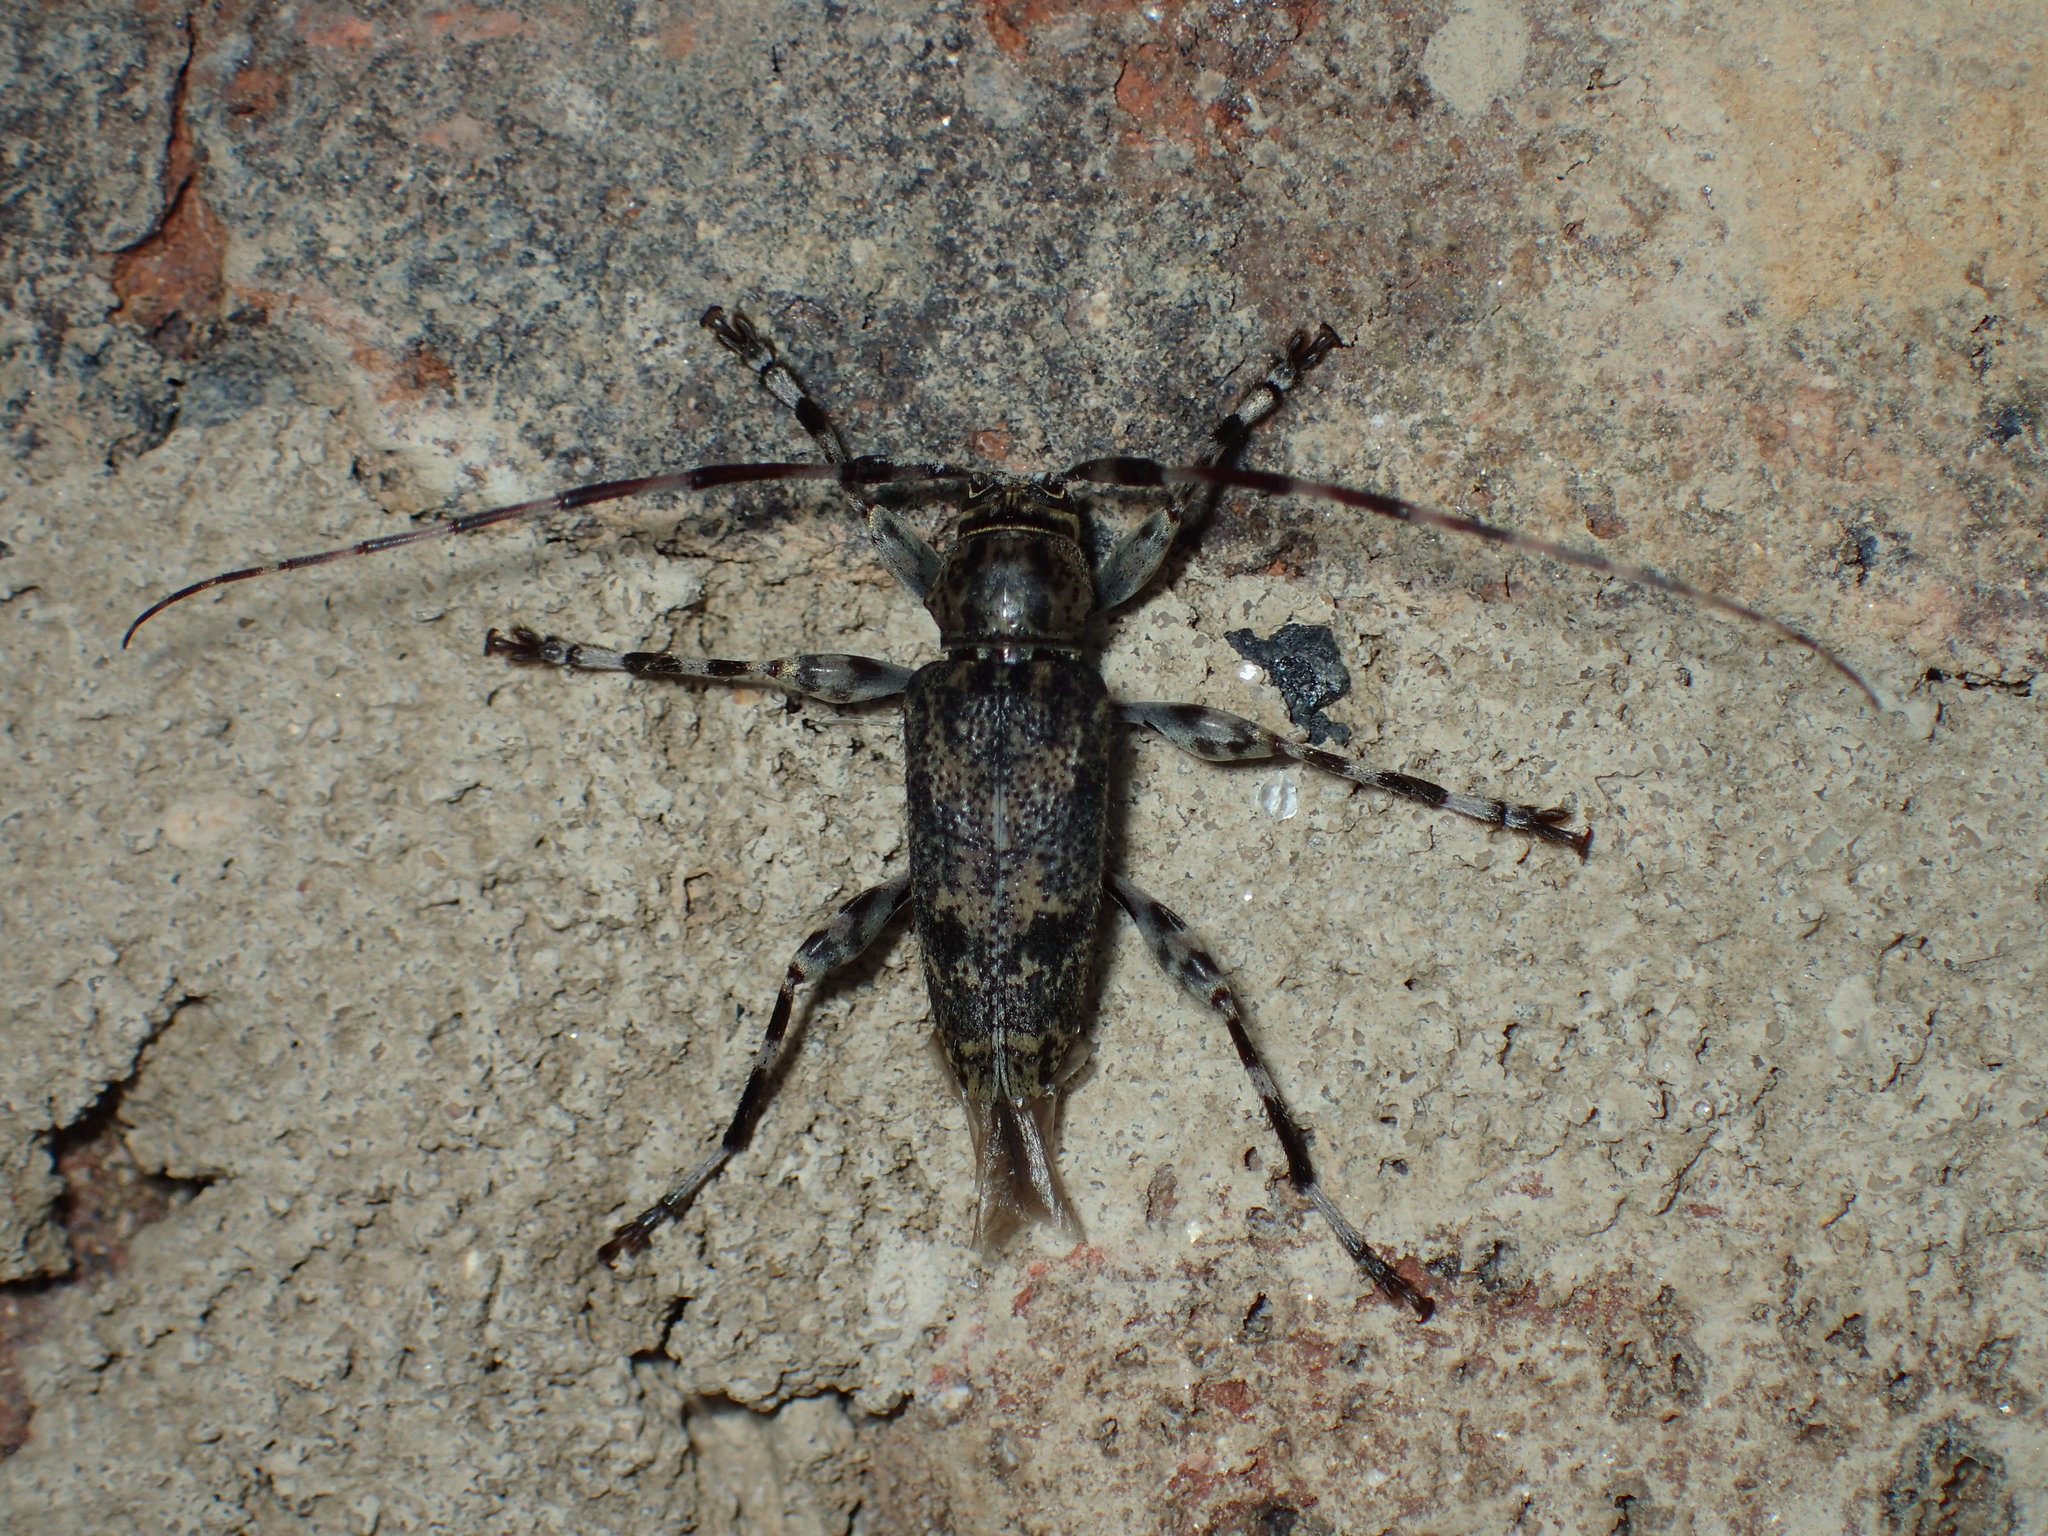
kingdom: Animalia
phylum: Arthropoda
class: Insecta
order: Coleoptera
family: Cerambycidae
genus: Graphisurus
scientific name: Graphisurus fasciatus
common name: Banded graphisurus
